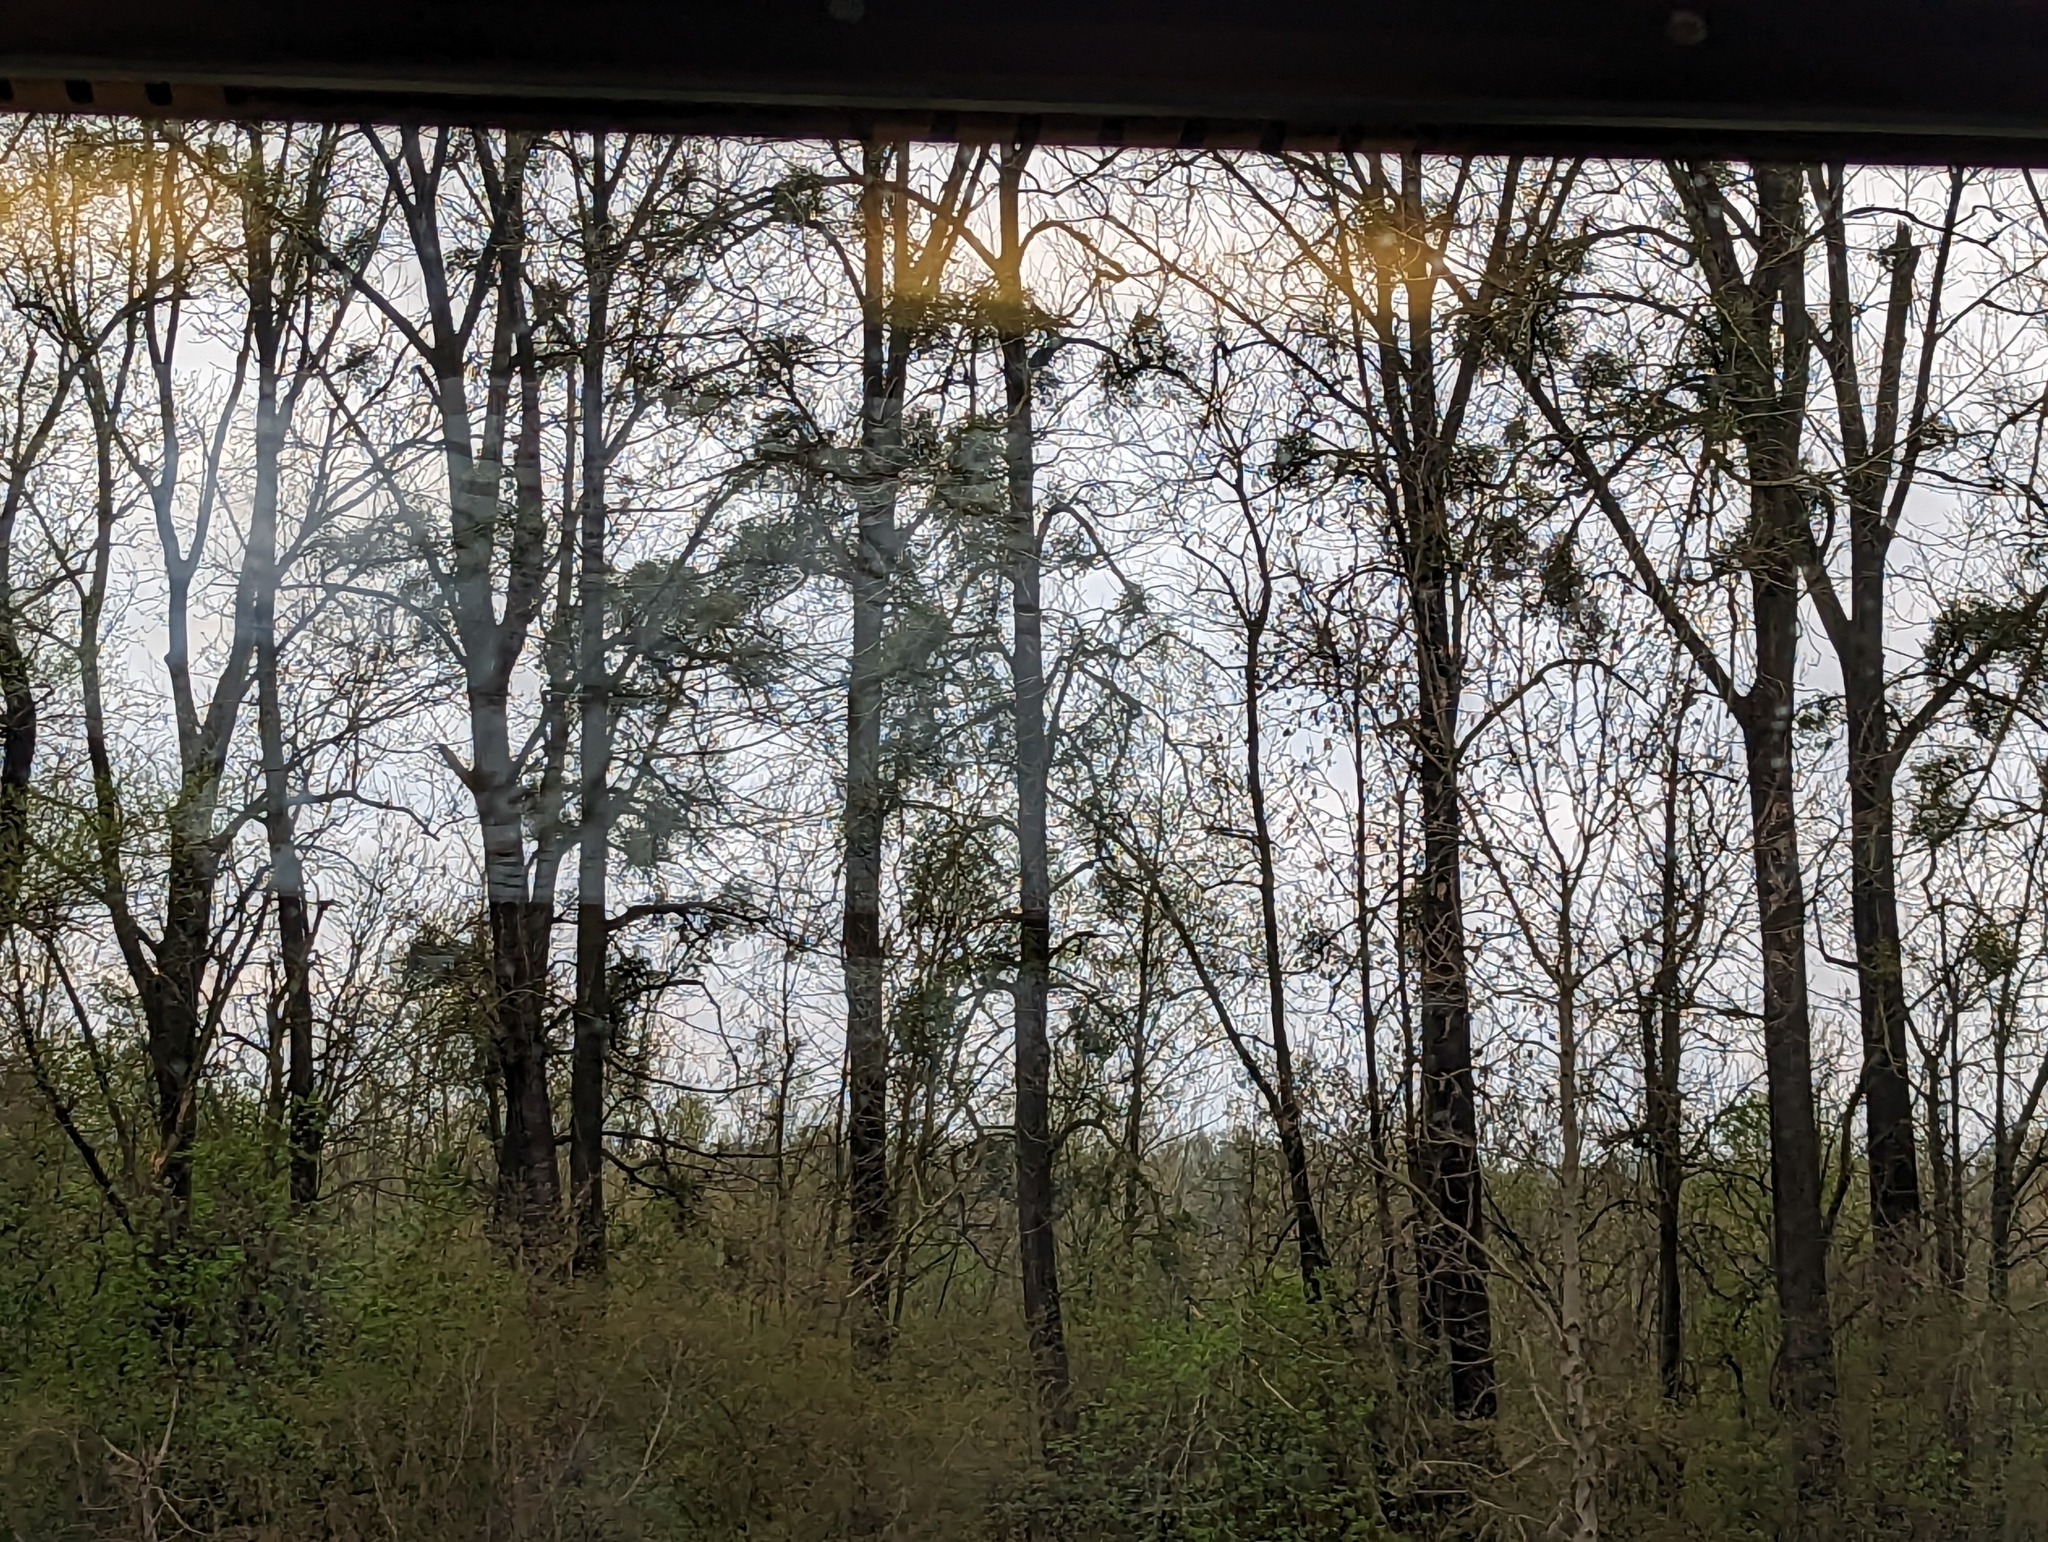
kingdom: Plantae
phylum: Tracheophyta
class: Magnoliopsida
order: Santalales
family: Viscaceae
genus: Viscum
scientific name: Viscum album
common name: Mistletoe
